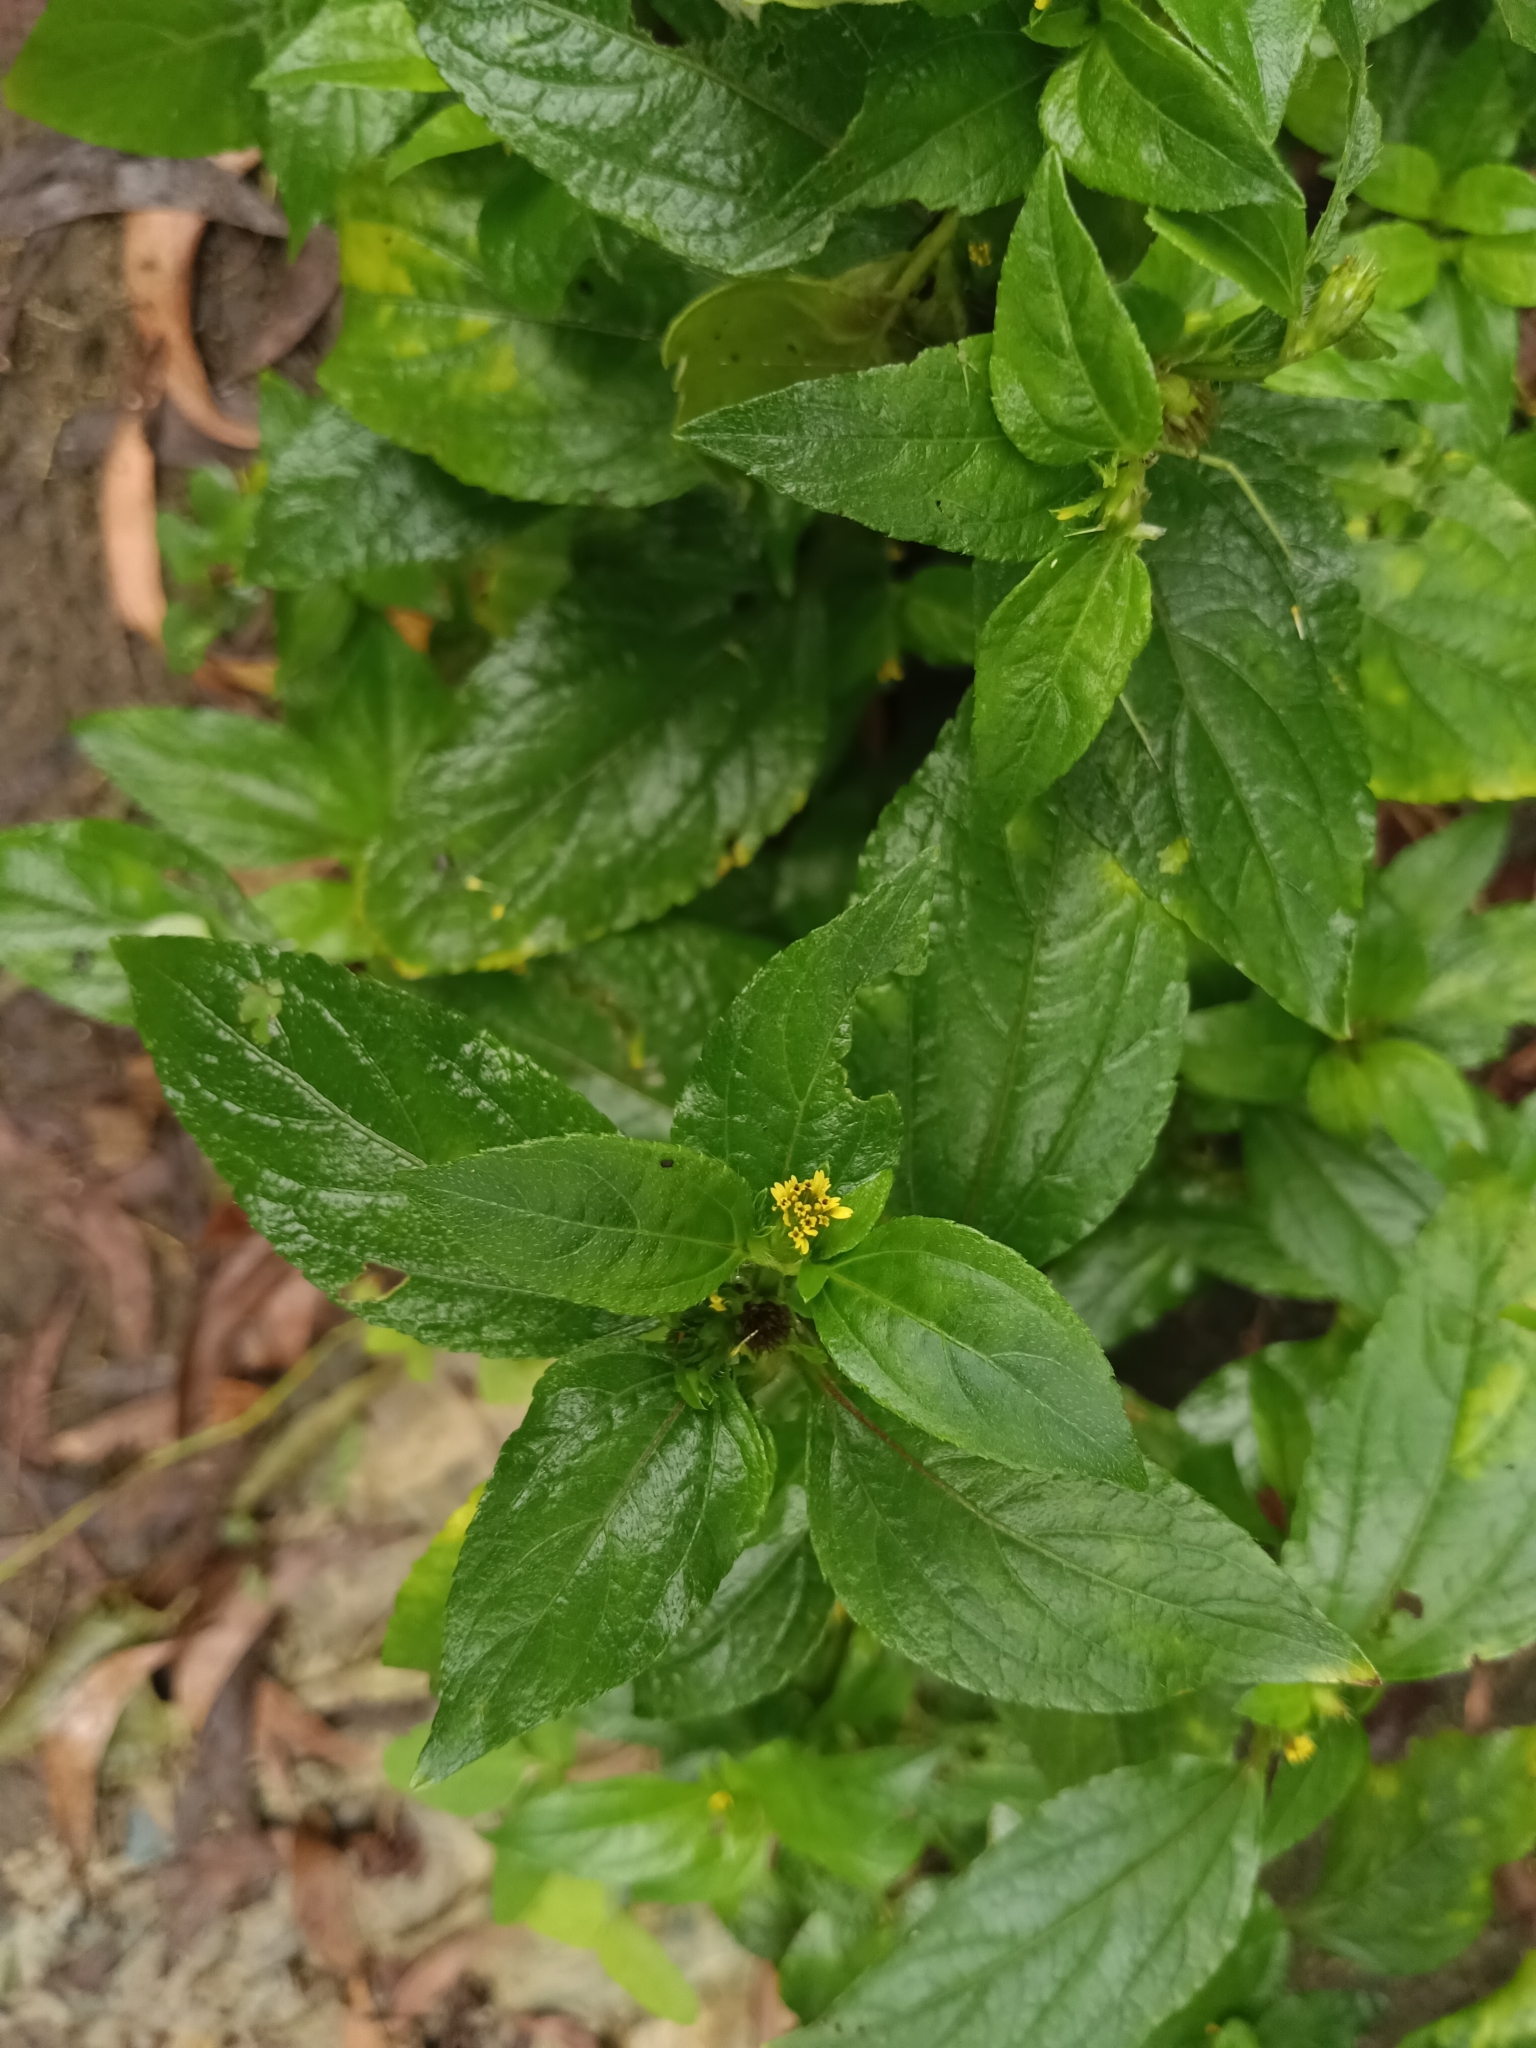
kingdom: Plantae
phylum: Tracheophyta
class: Magnoliopsida
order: Asterales
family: Asteraceae
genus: Synedrella
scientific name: Synedrella nodiflora
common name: Nodeweed
